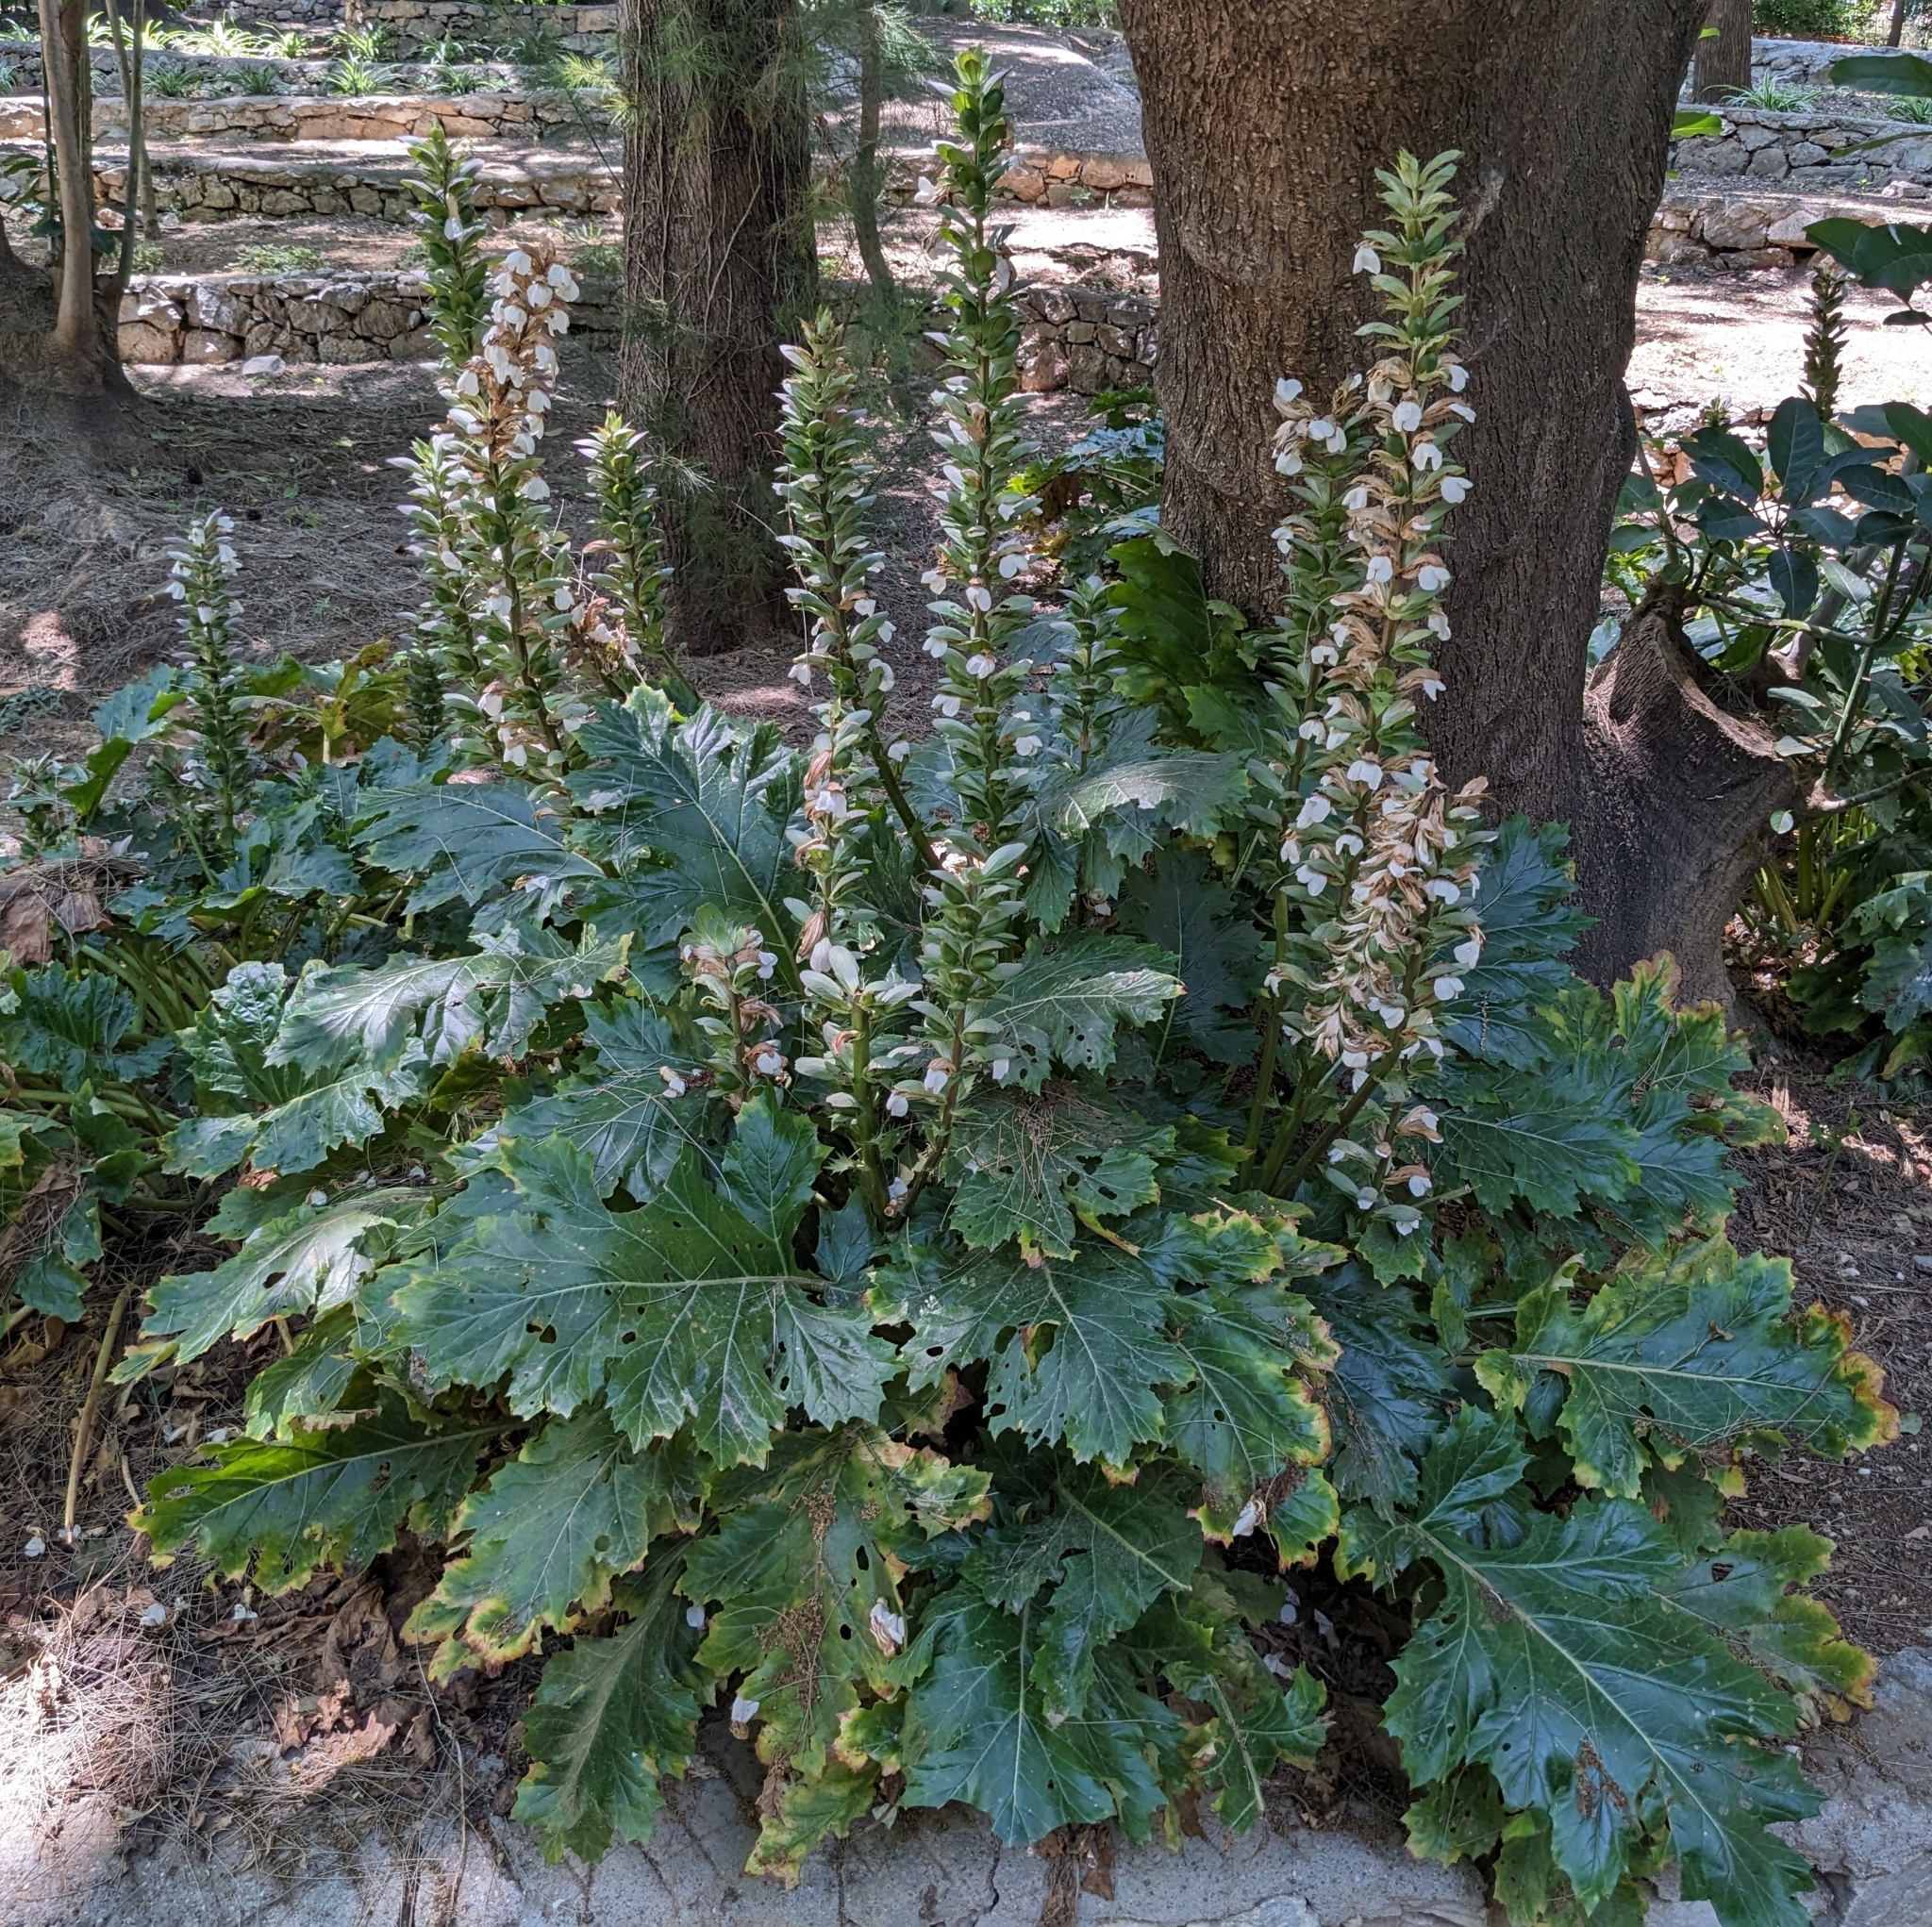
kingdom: Plantae
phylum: Tracheophyta
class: Magnoliopsida
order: Lamiales
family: Acanthaceae
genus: Acanthus
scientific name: Acanthus mollis
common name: Bear's-breech
